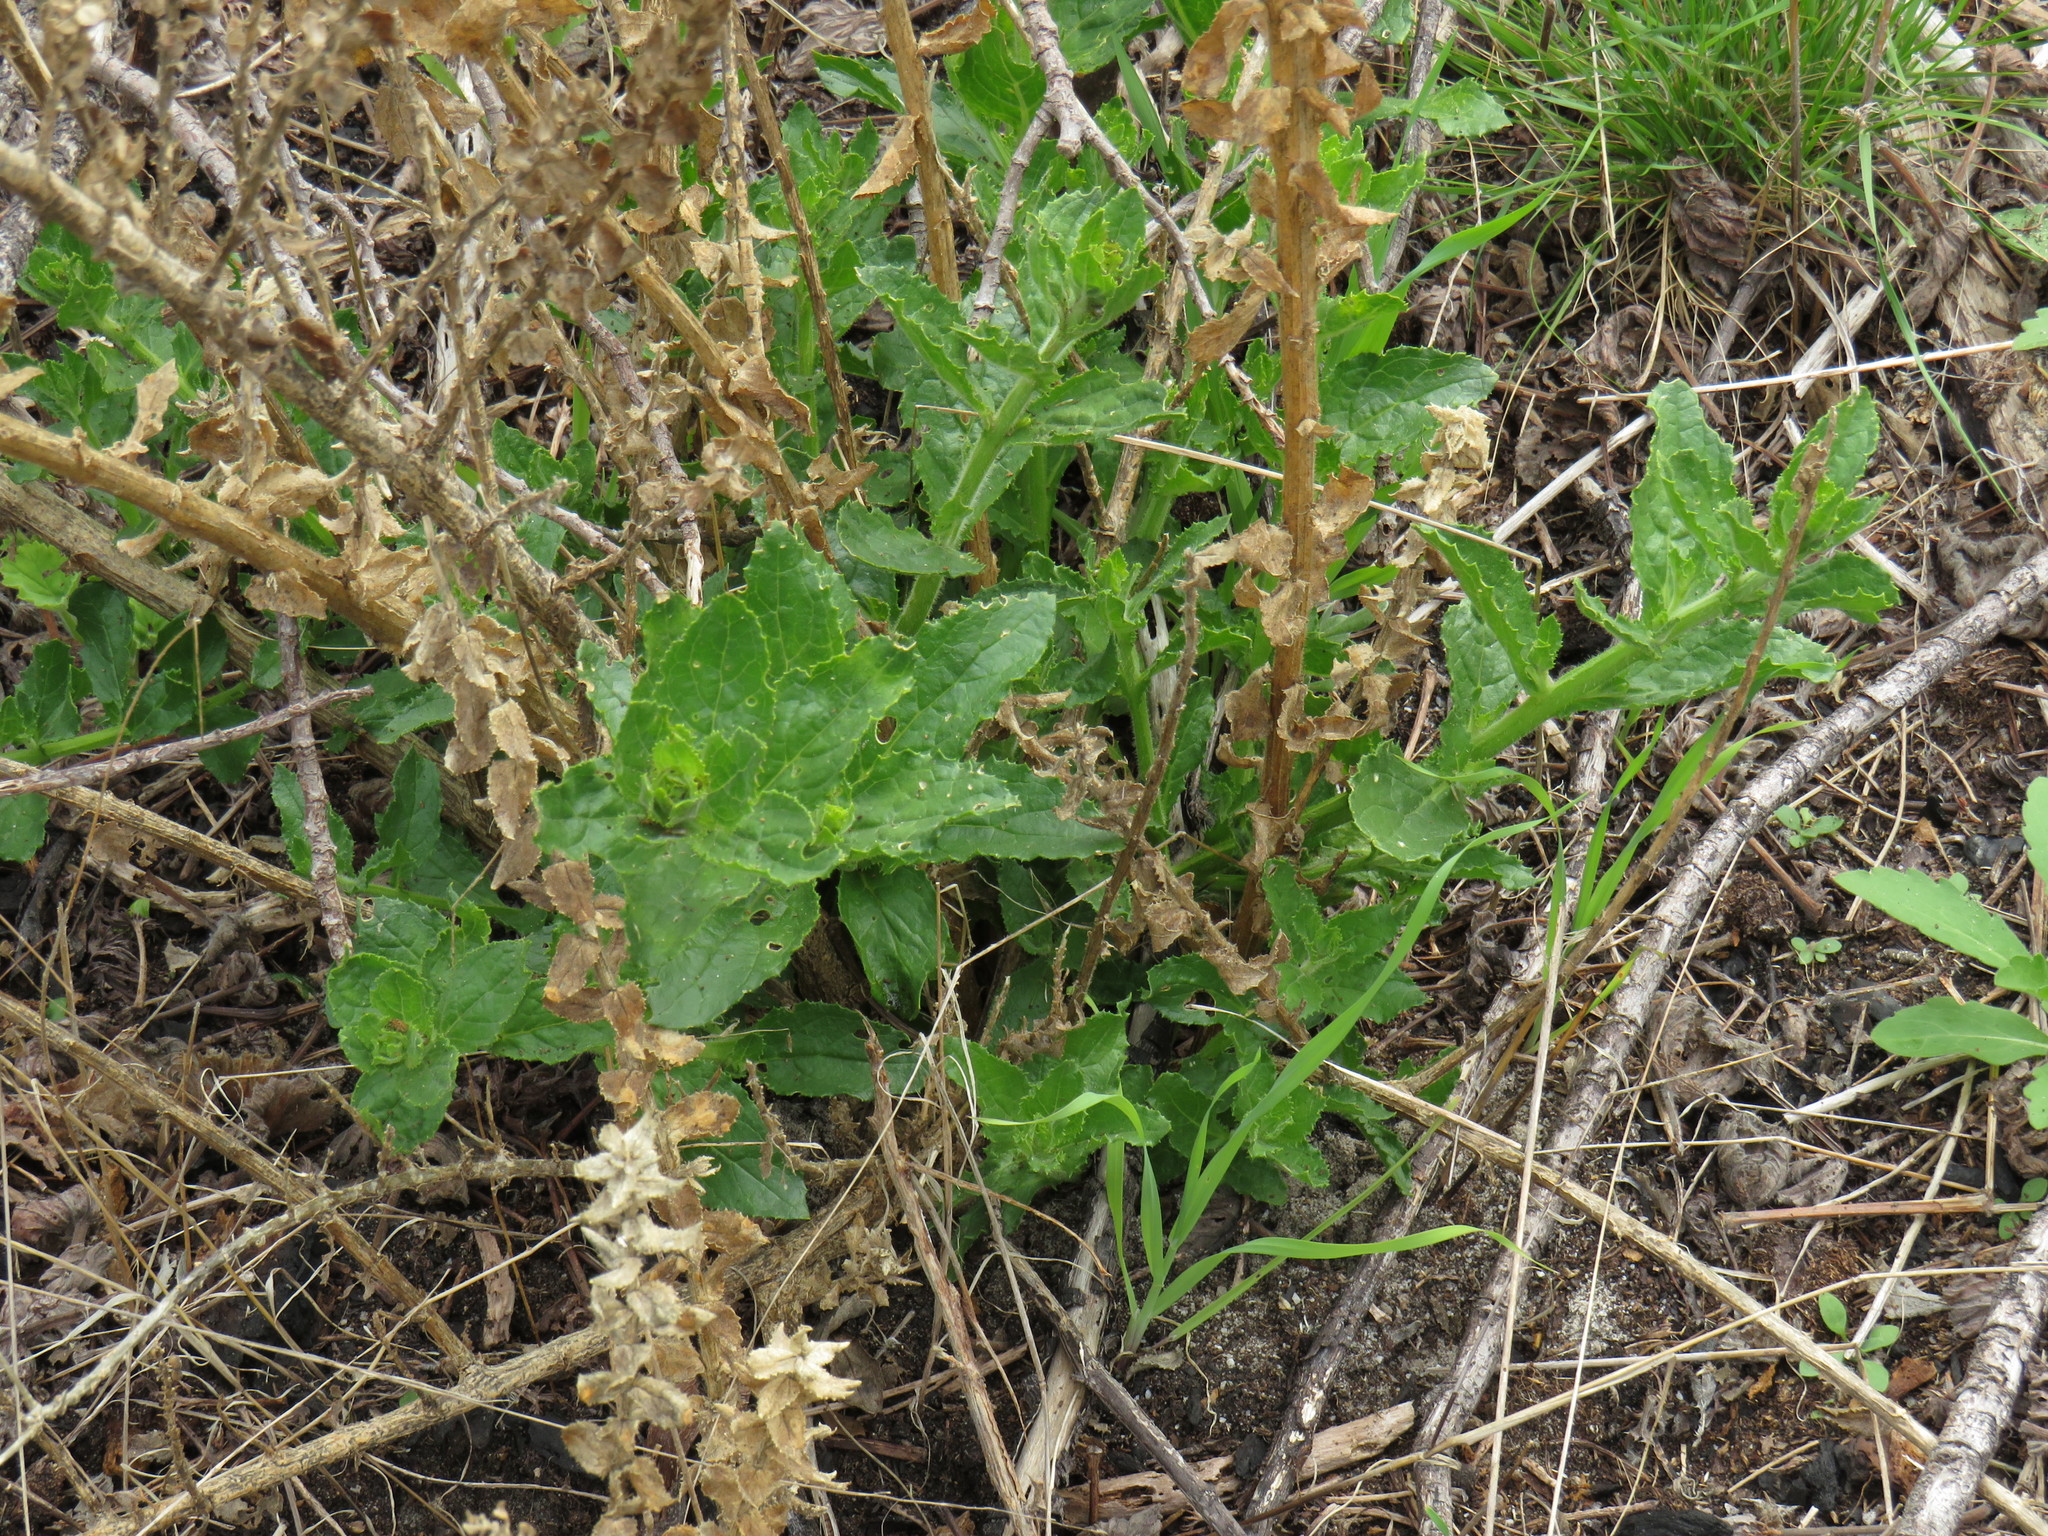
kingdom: Plantae
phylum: Tracheophyta
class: Magnoliopsida
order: Lamiales
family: Scrophulariaceae
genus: Oftia
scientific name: Oftia africana
